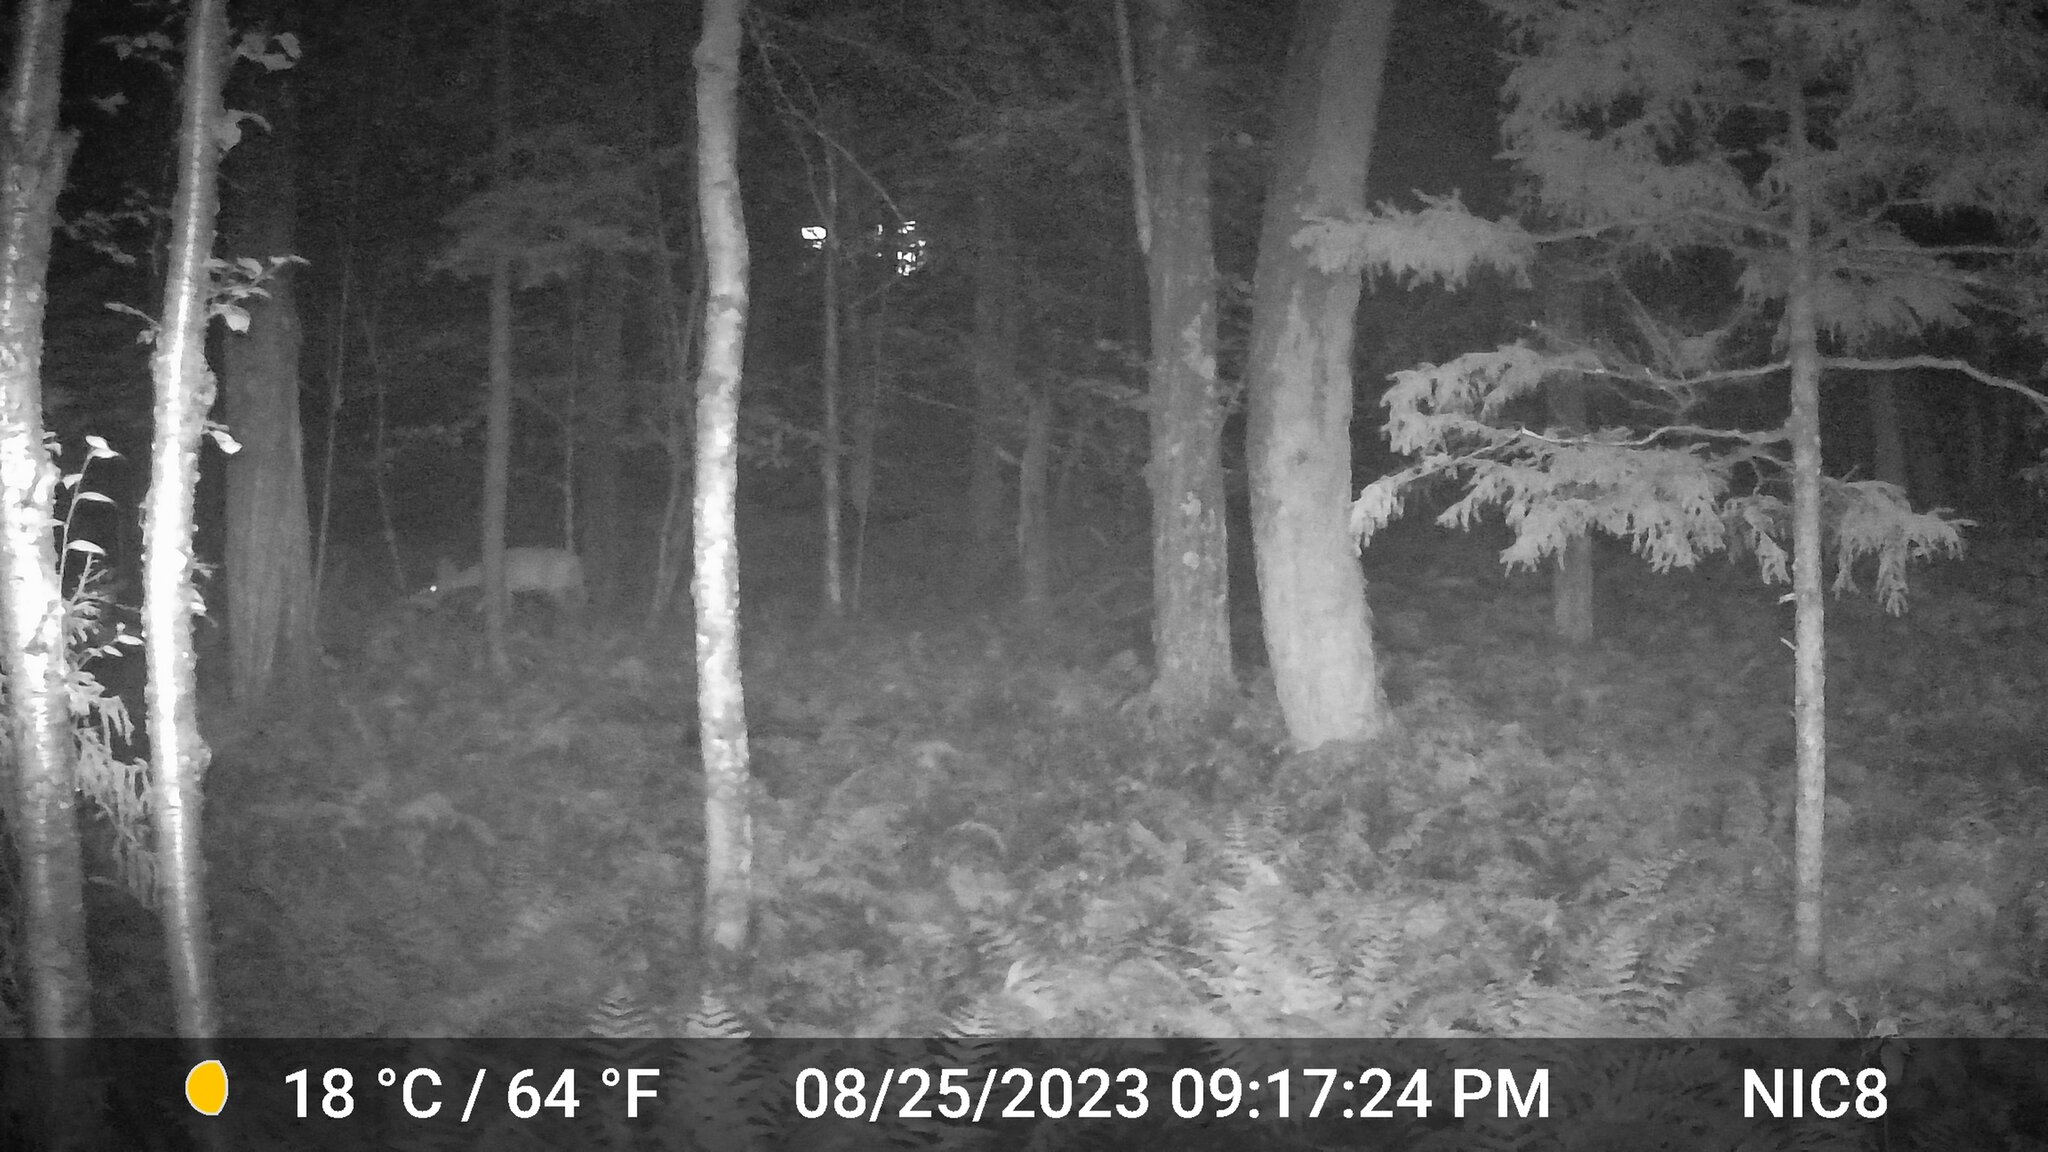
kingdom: Animalia
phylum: Chordata
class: Mammalia
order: Artiodactyla
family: Cervidae
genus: Odocoileus
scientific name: Odocoileus virginianus
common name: White-tailed deer
